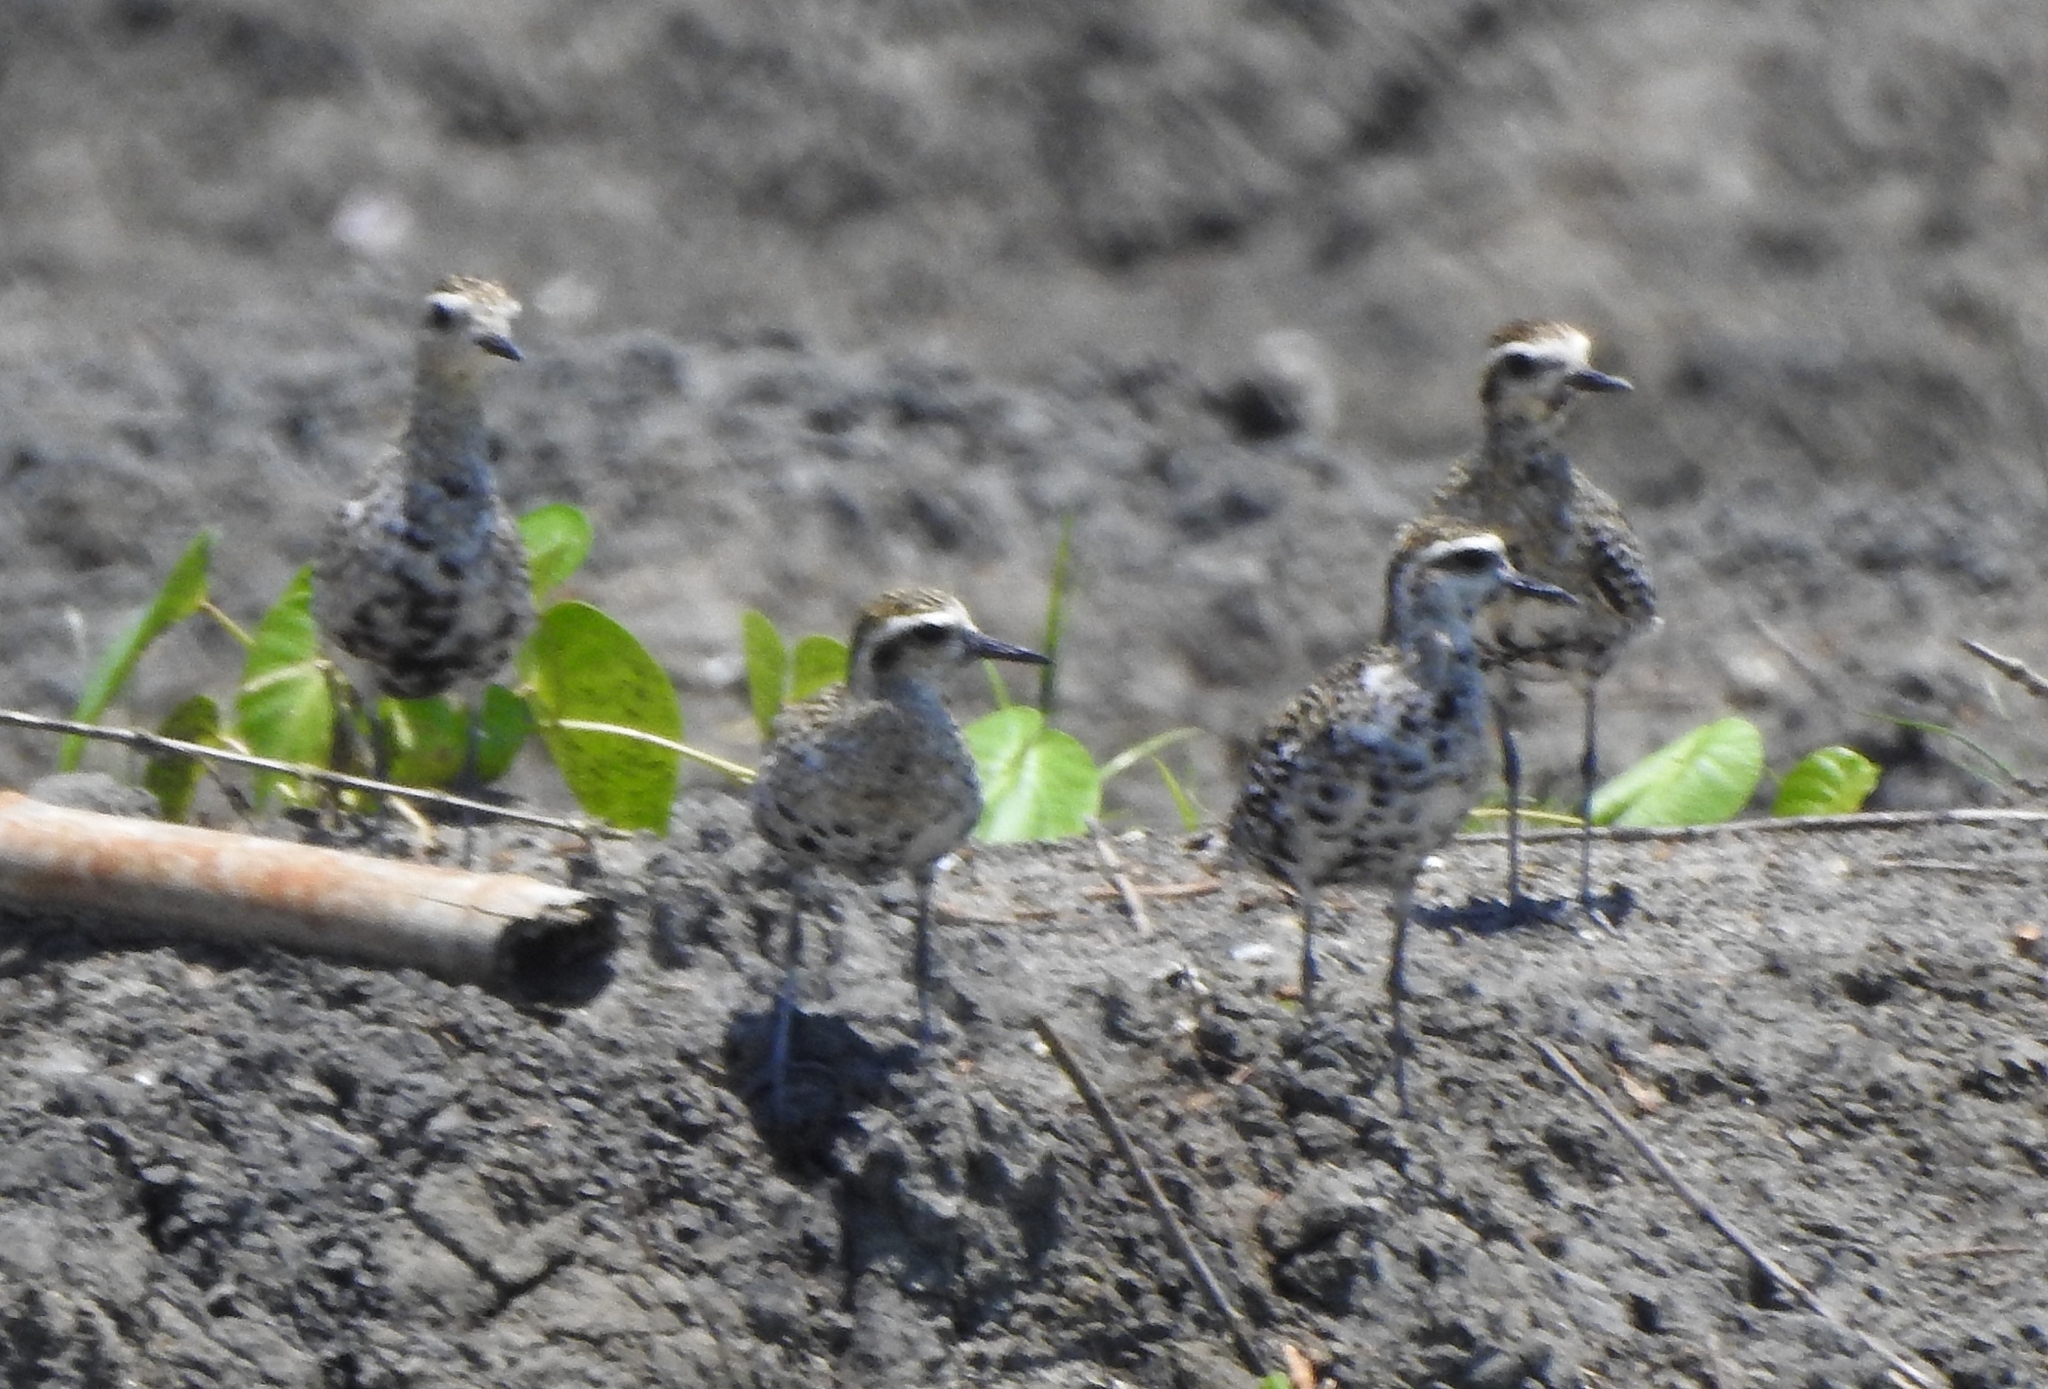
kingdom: Animalia
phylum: Chordata
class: Aves
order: Charadriiformes
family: Charadriidae
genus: Pluvialis
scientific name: Pluvialis fulva
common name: Pacific golden plover
